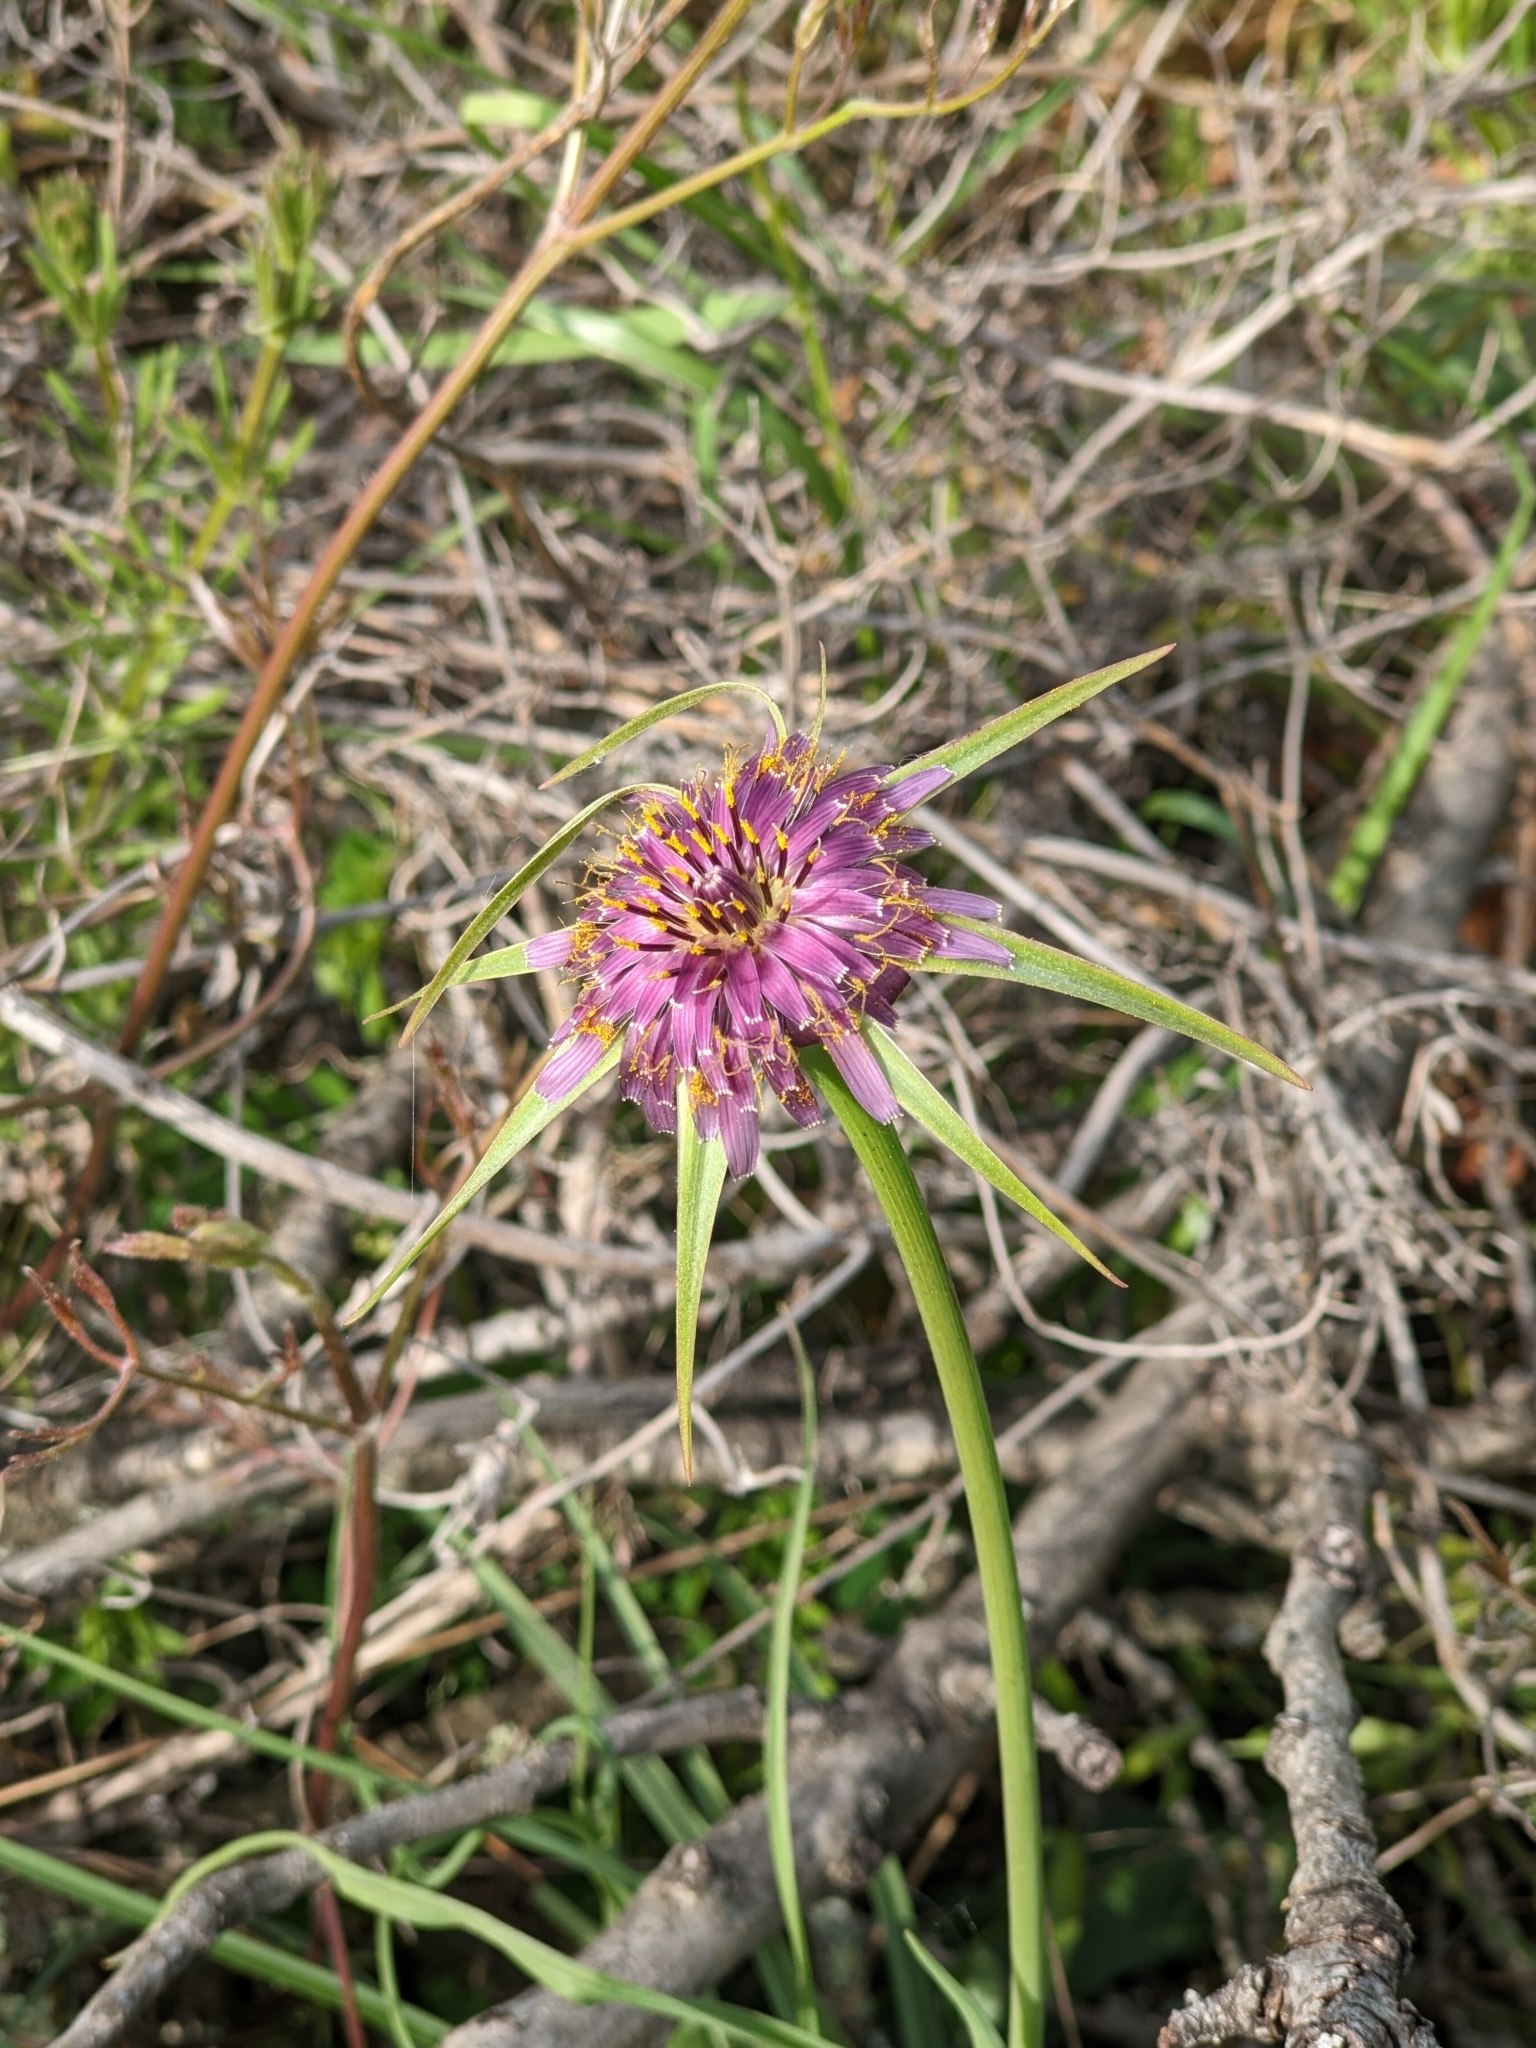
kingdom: Plantae
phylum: Tracheophyta
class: Magnoliopsida
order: Asterales
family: Asteraceae
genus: Tragopogon
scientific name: Tragopogon porrifolius
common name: Salsify
